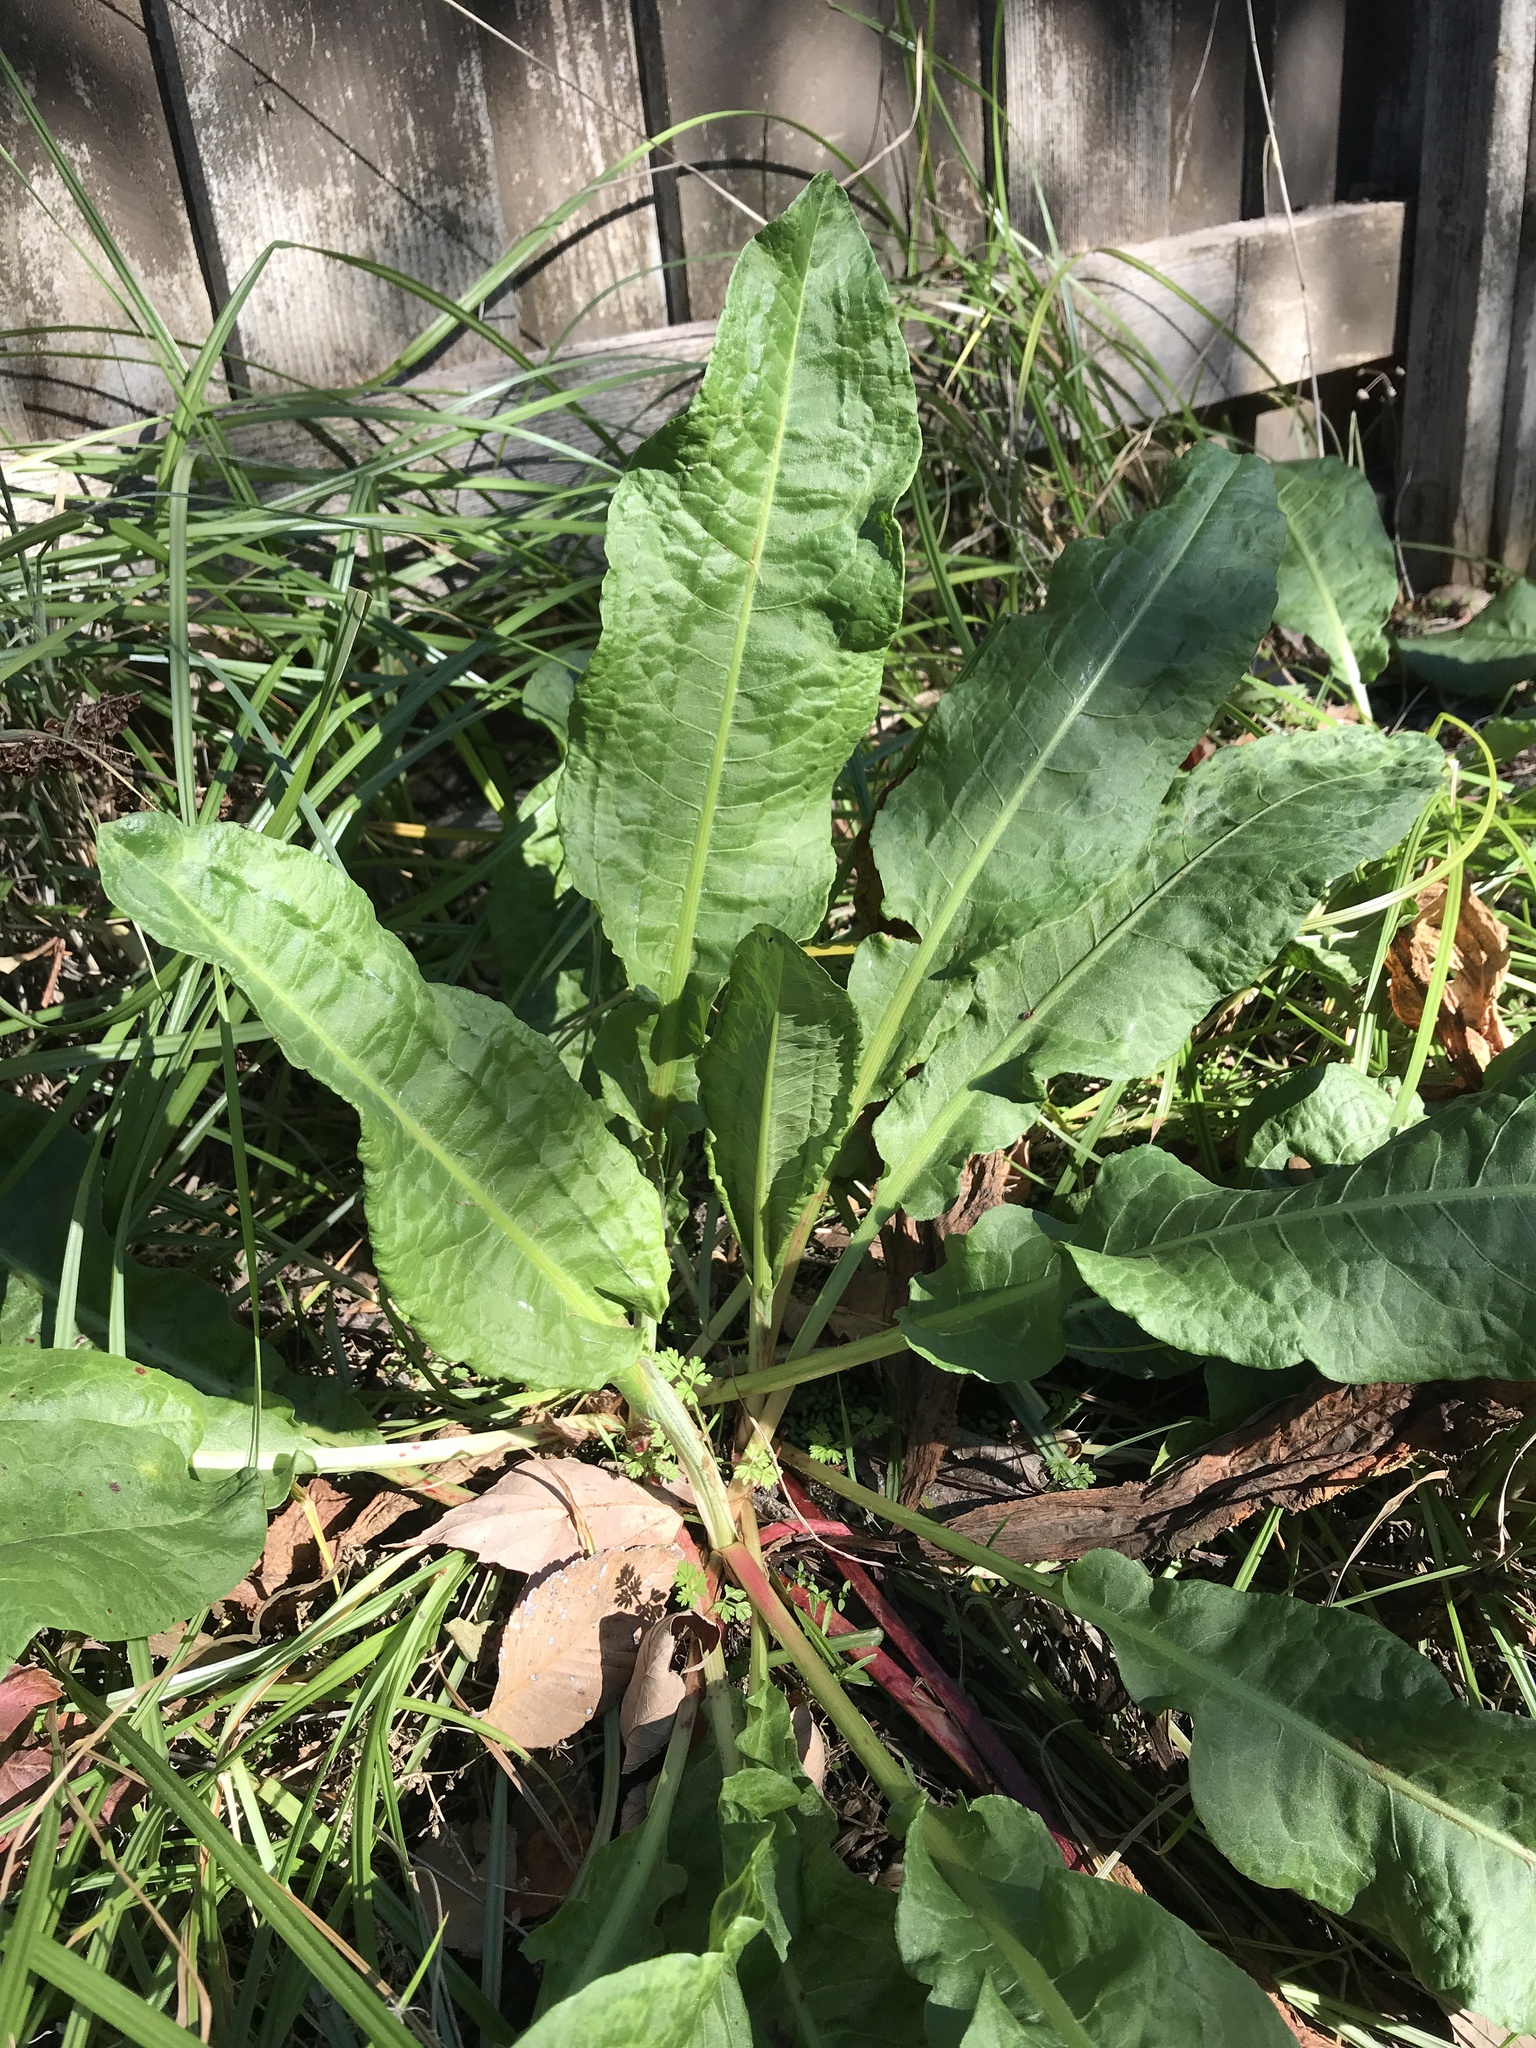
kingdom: Plantae
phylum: Tracheophyta
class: Magnoliopsida
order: Caryophyllales
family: Polygonaceae
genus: Rumex
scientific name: Rumex crispus
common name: Curled dock
